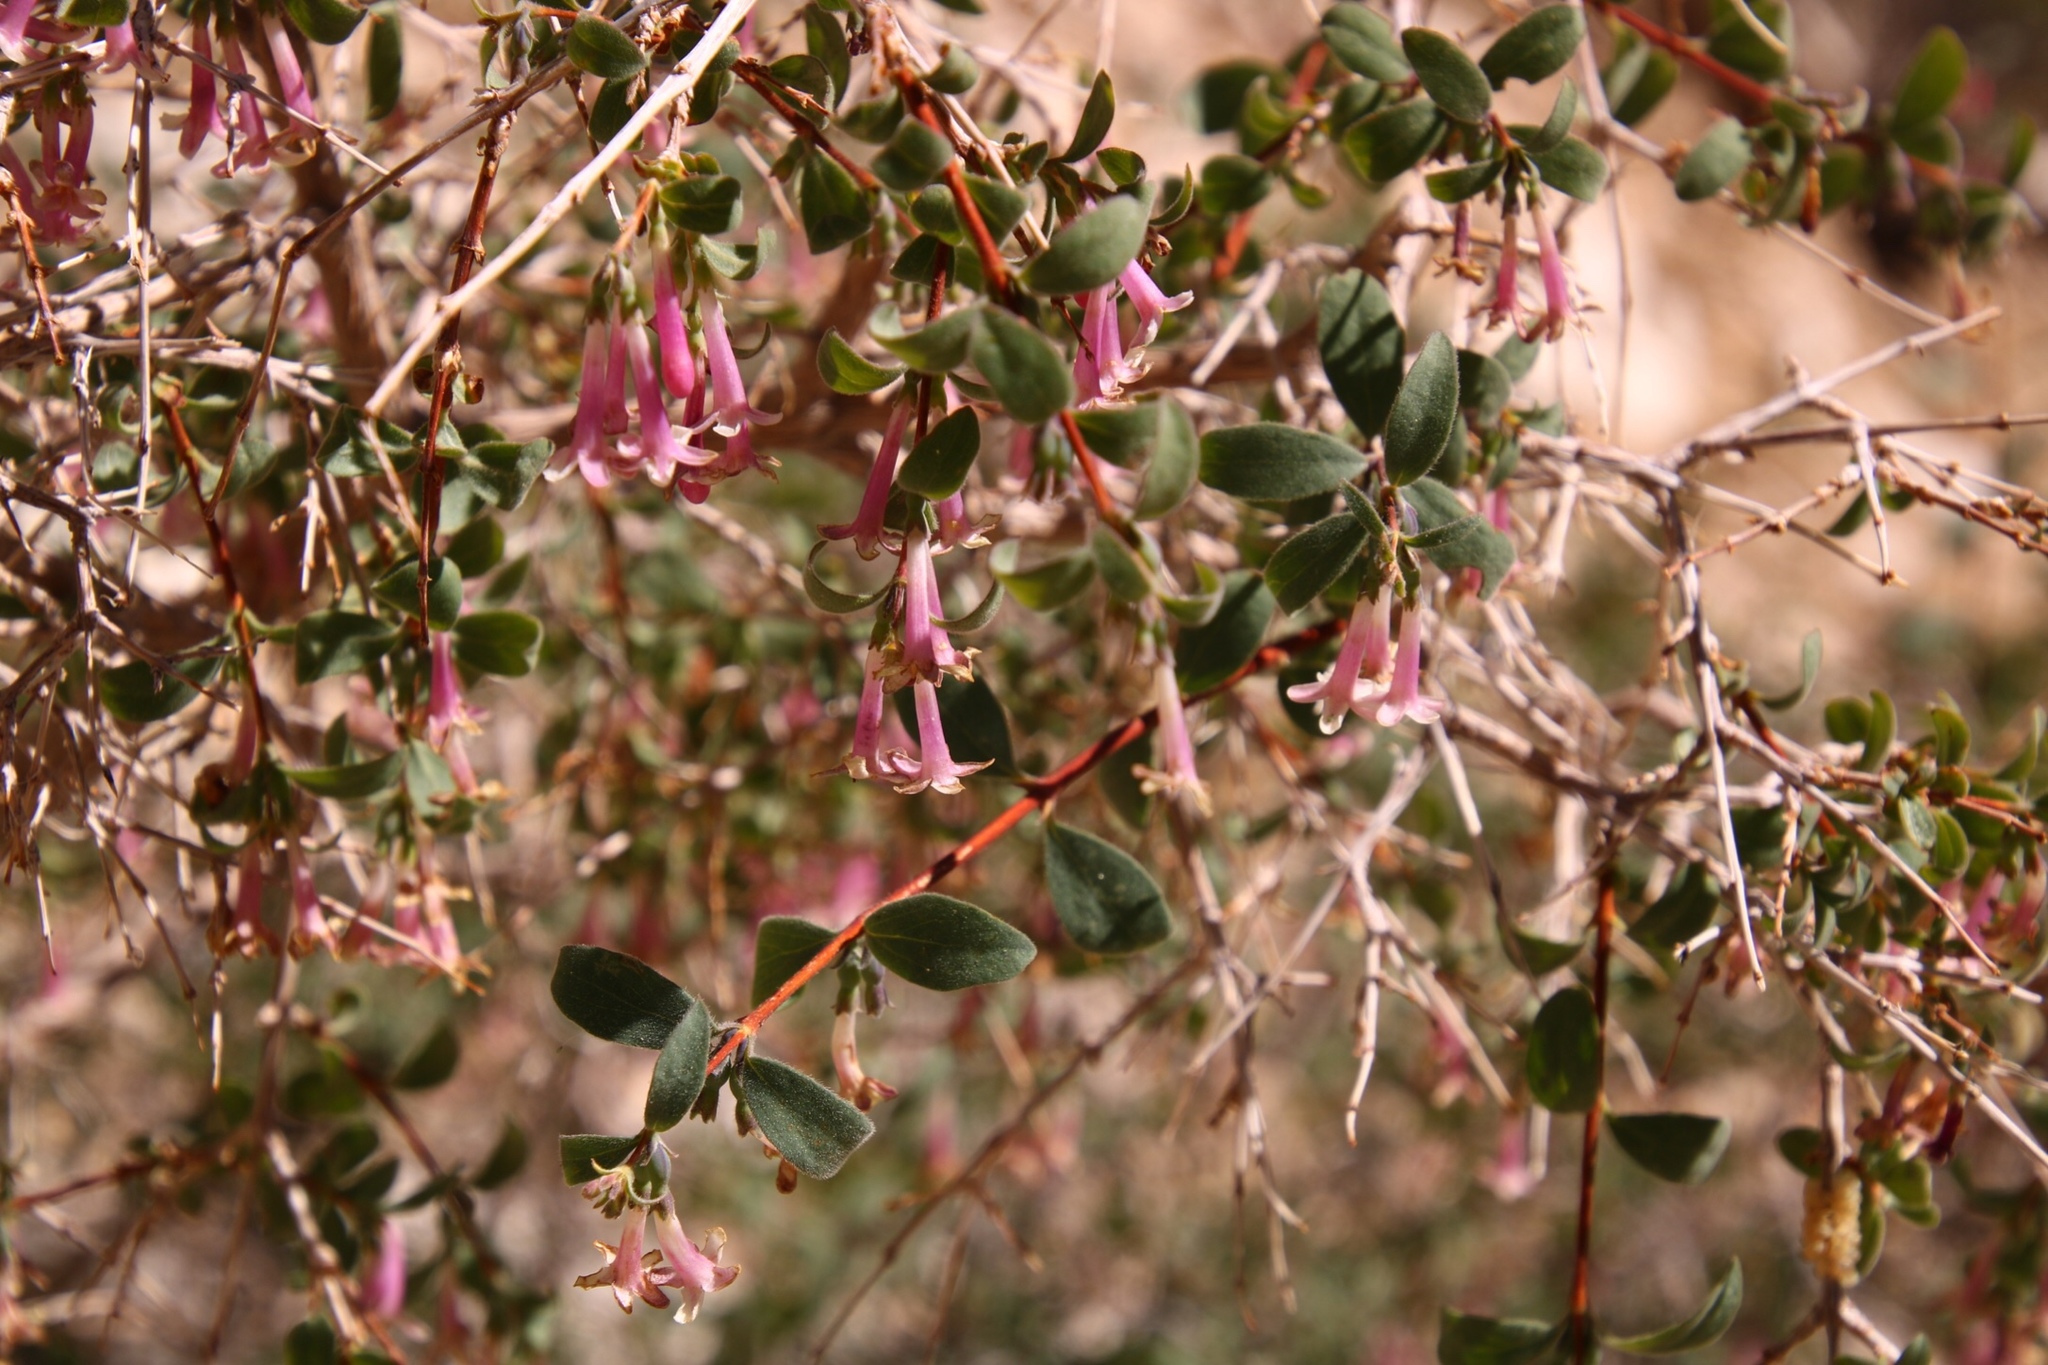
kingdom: Plantae
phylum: Tracheophyta
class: Magnoliopsida
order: Dipsacales
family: Caprifoliaceae
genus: Symphoricarpos
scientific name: Symphoricarpos longiflorus
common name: Fragrant snowberry
